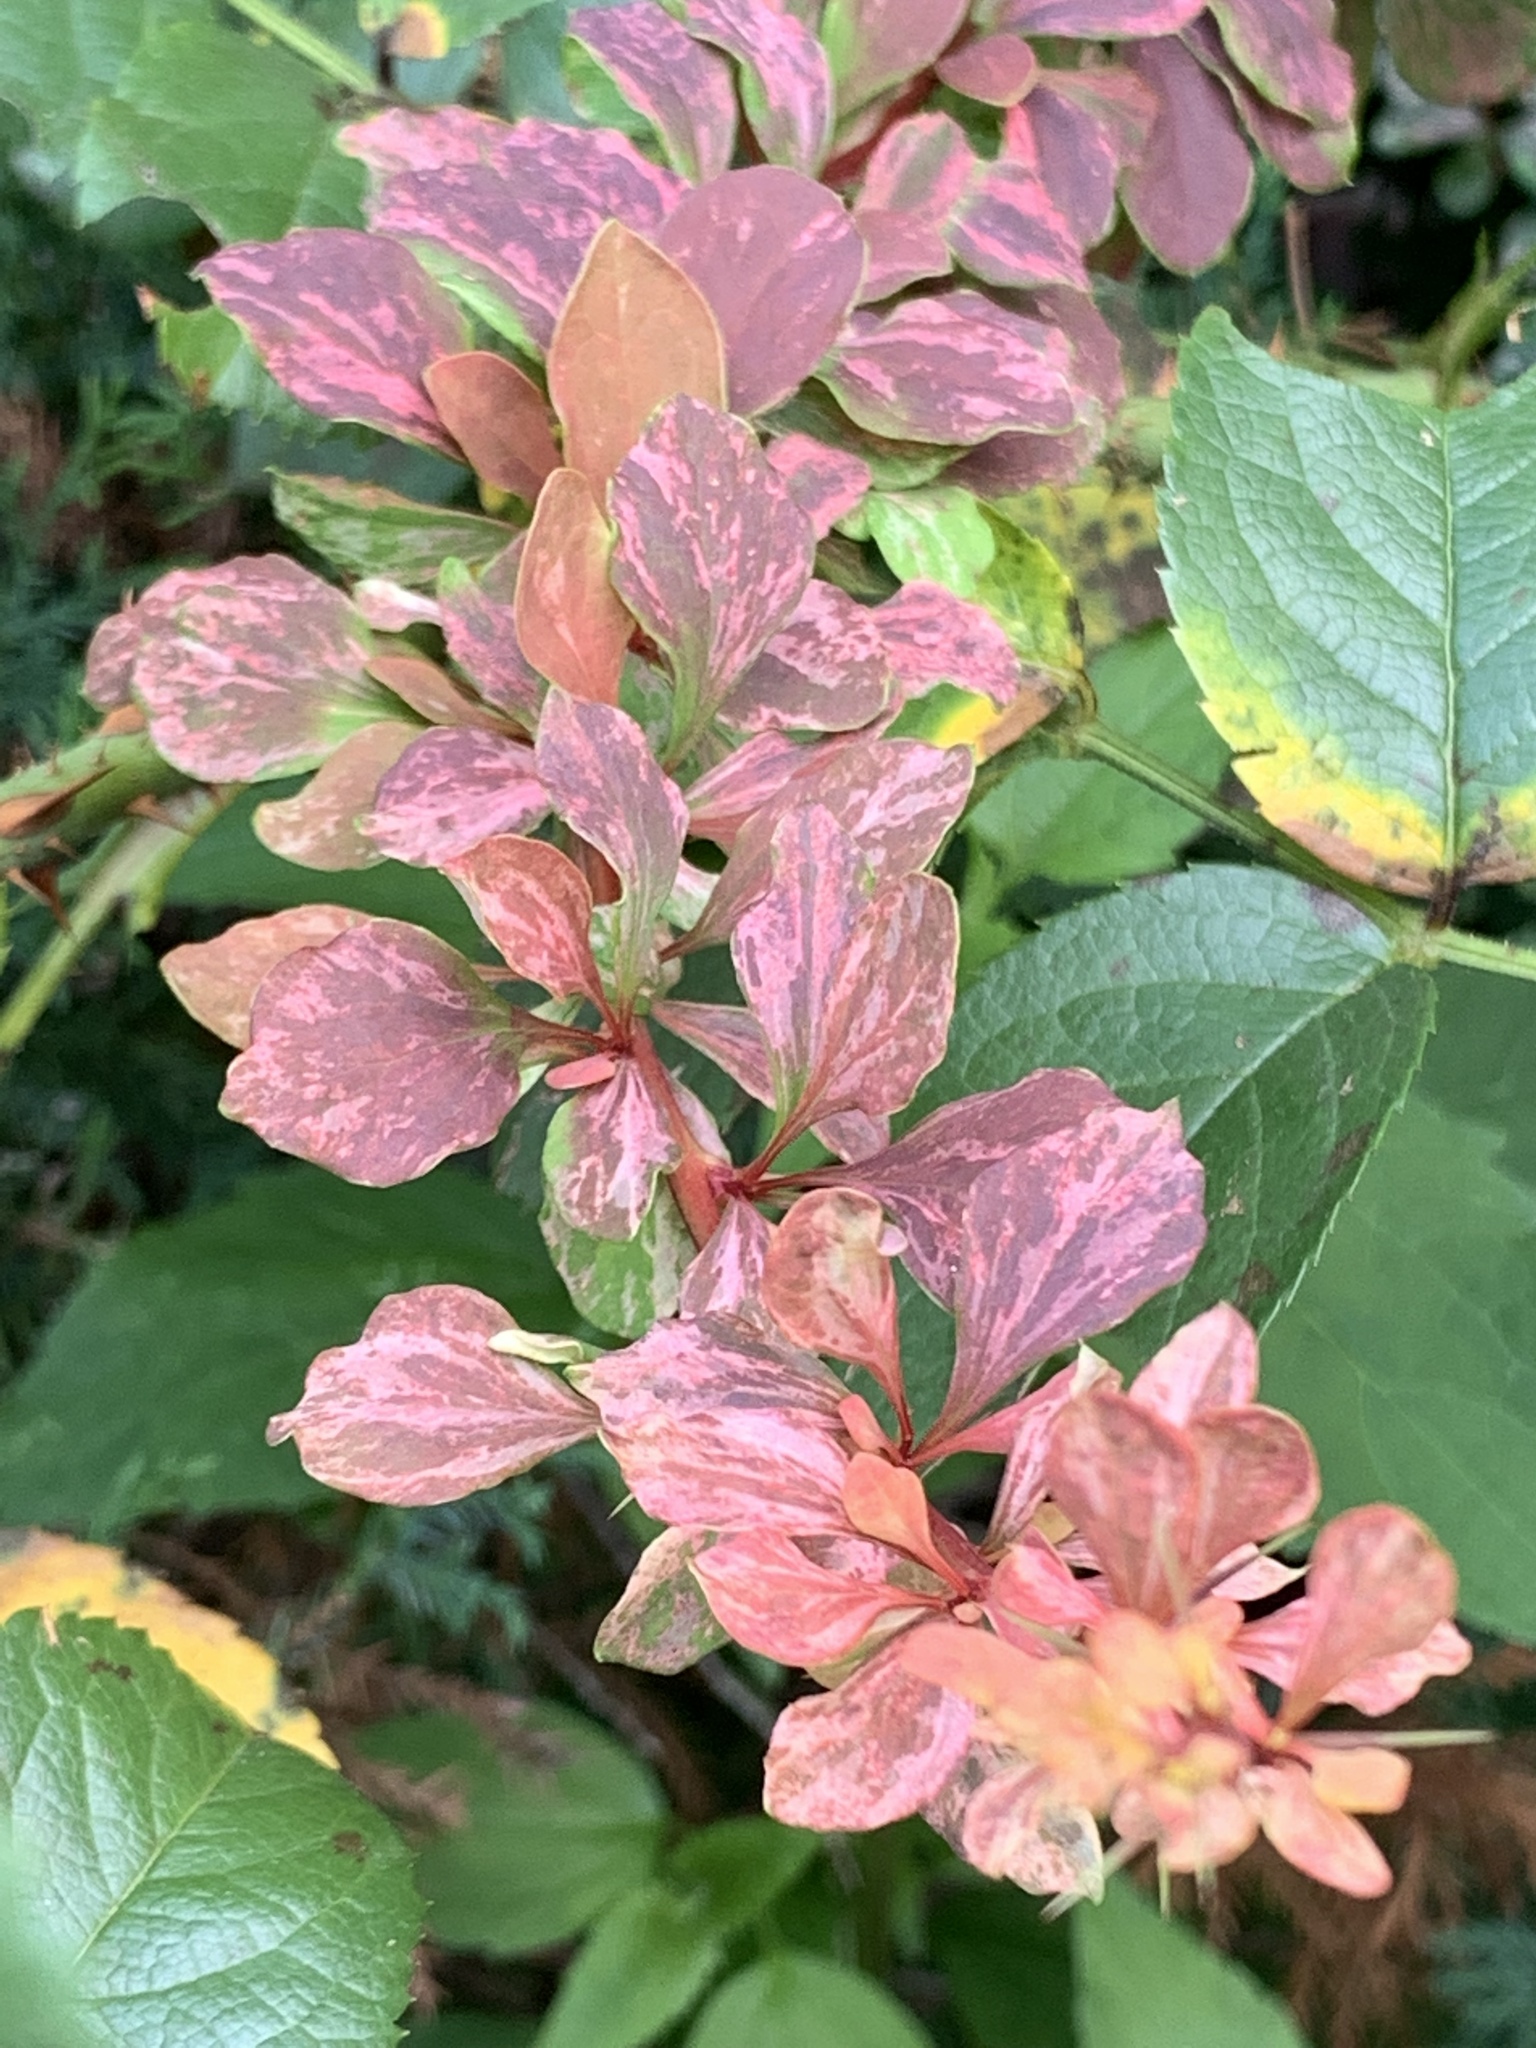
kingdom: Plantae
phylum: Tracheophyta
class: Magnoliopsida
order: Ranunculales
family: Berberidaceae
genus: Berberis
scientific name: Berberis thunbergii
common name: Japanese barberry
